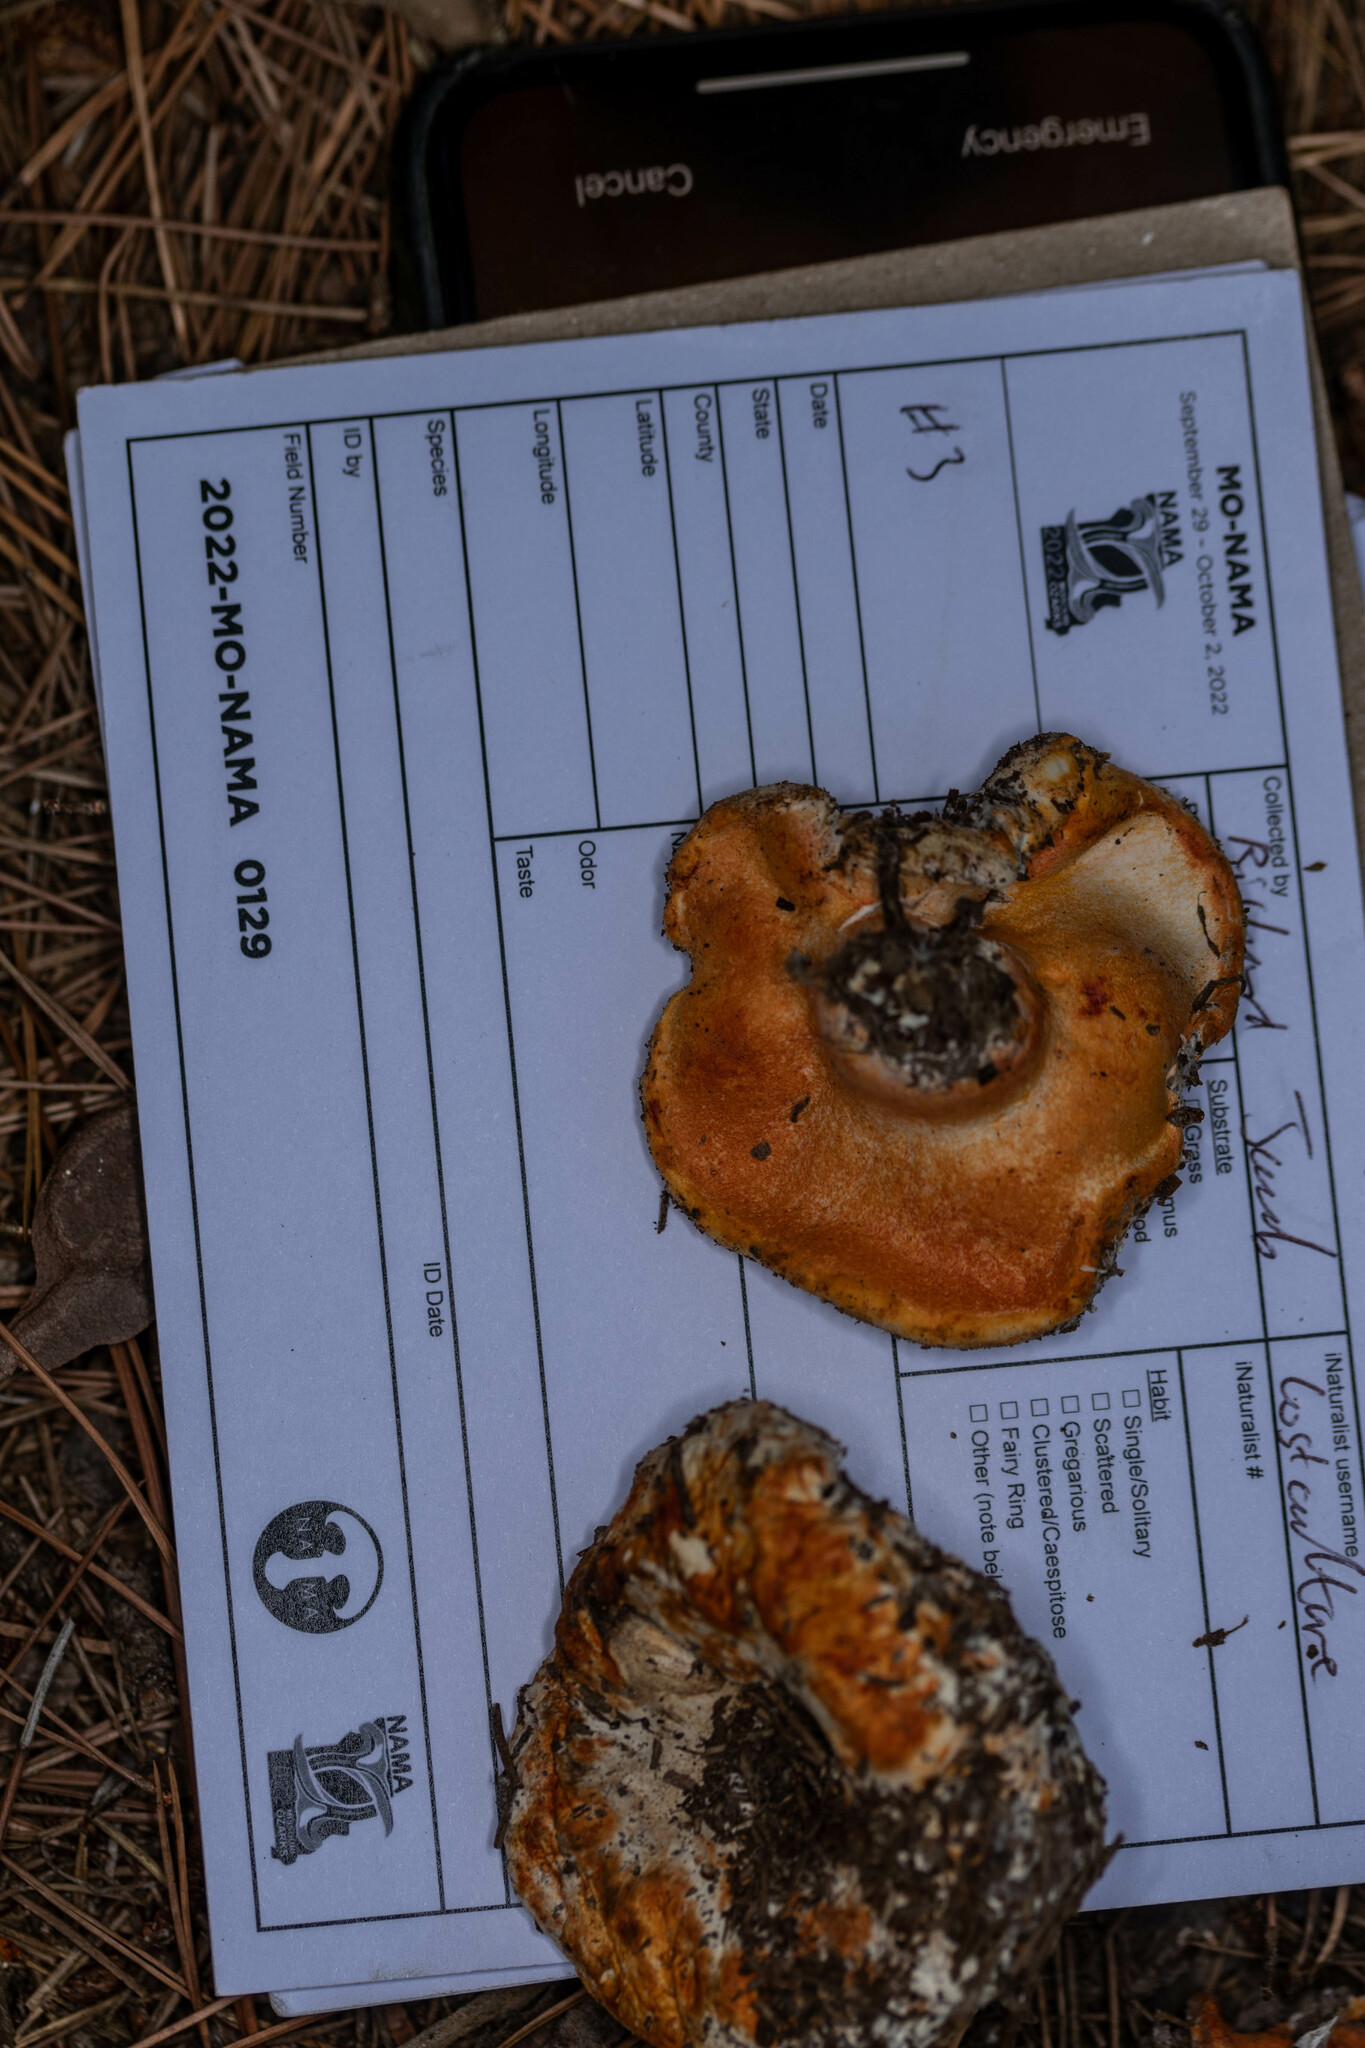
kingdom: Fungi
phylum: Ascomycota
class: Sordariomycetes
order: Hypocreales
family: Hypocreaceae
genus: Hypomyces
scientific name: Hypomyces lactifluorum
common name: Lobster mushroom
